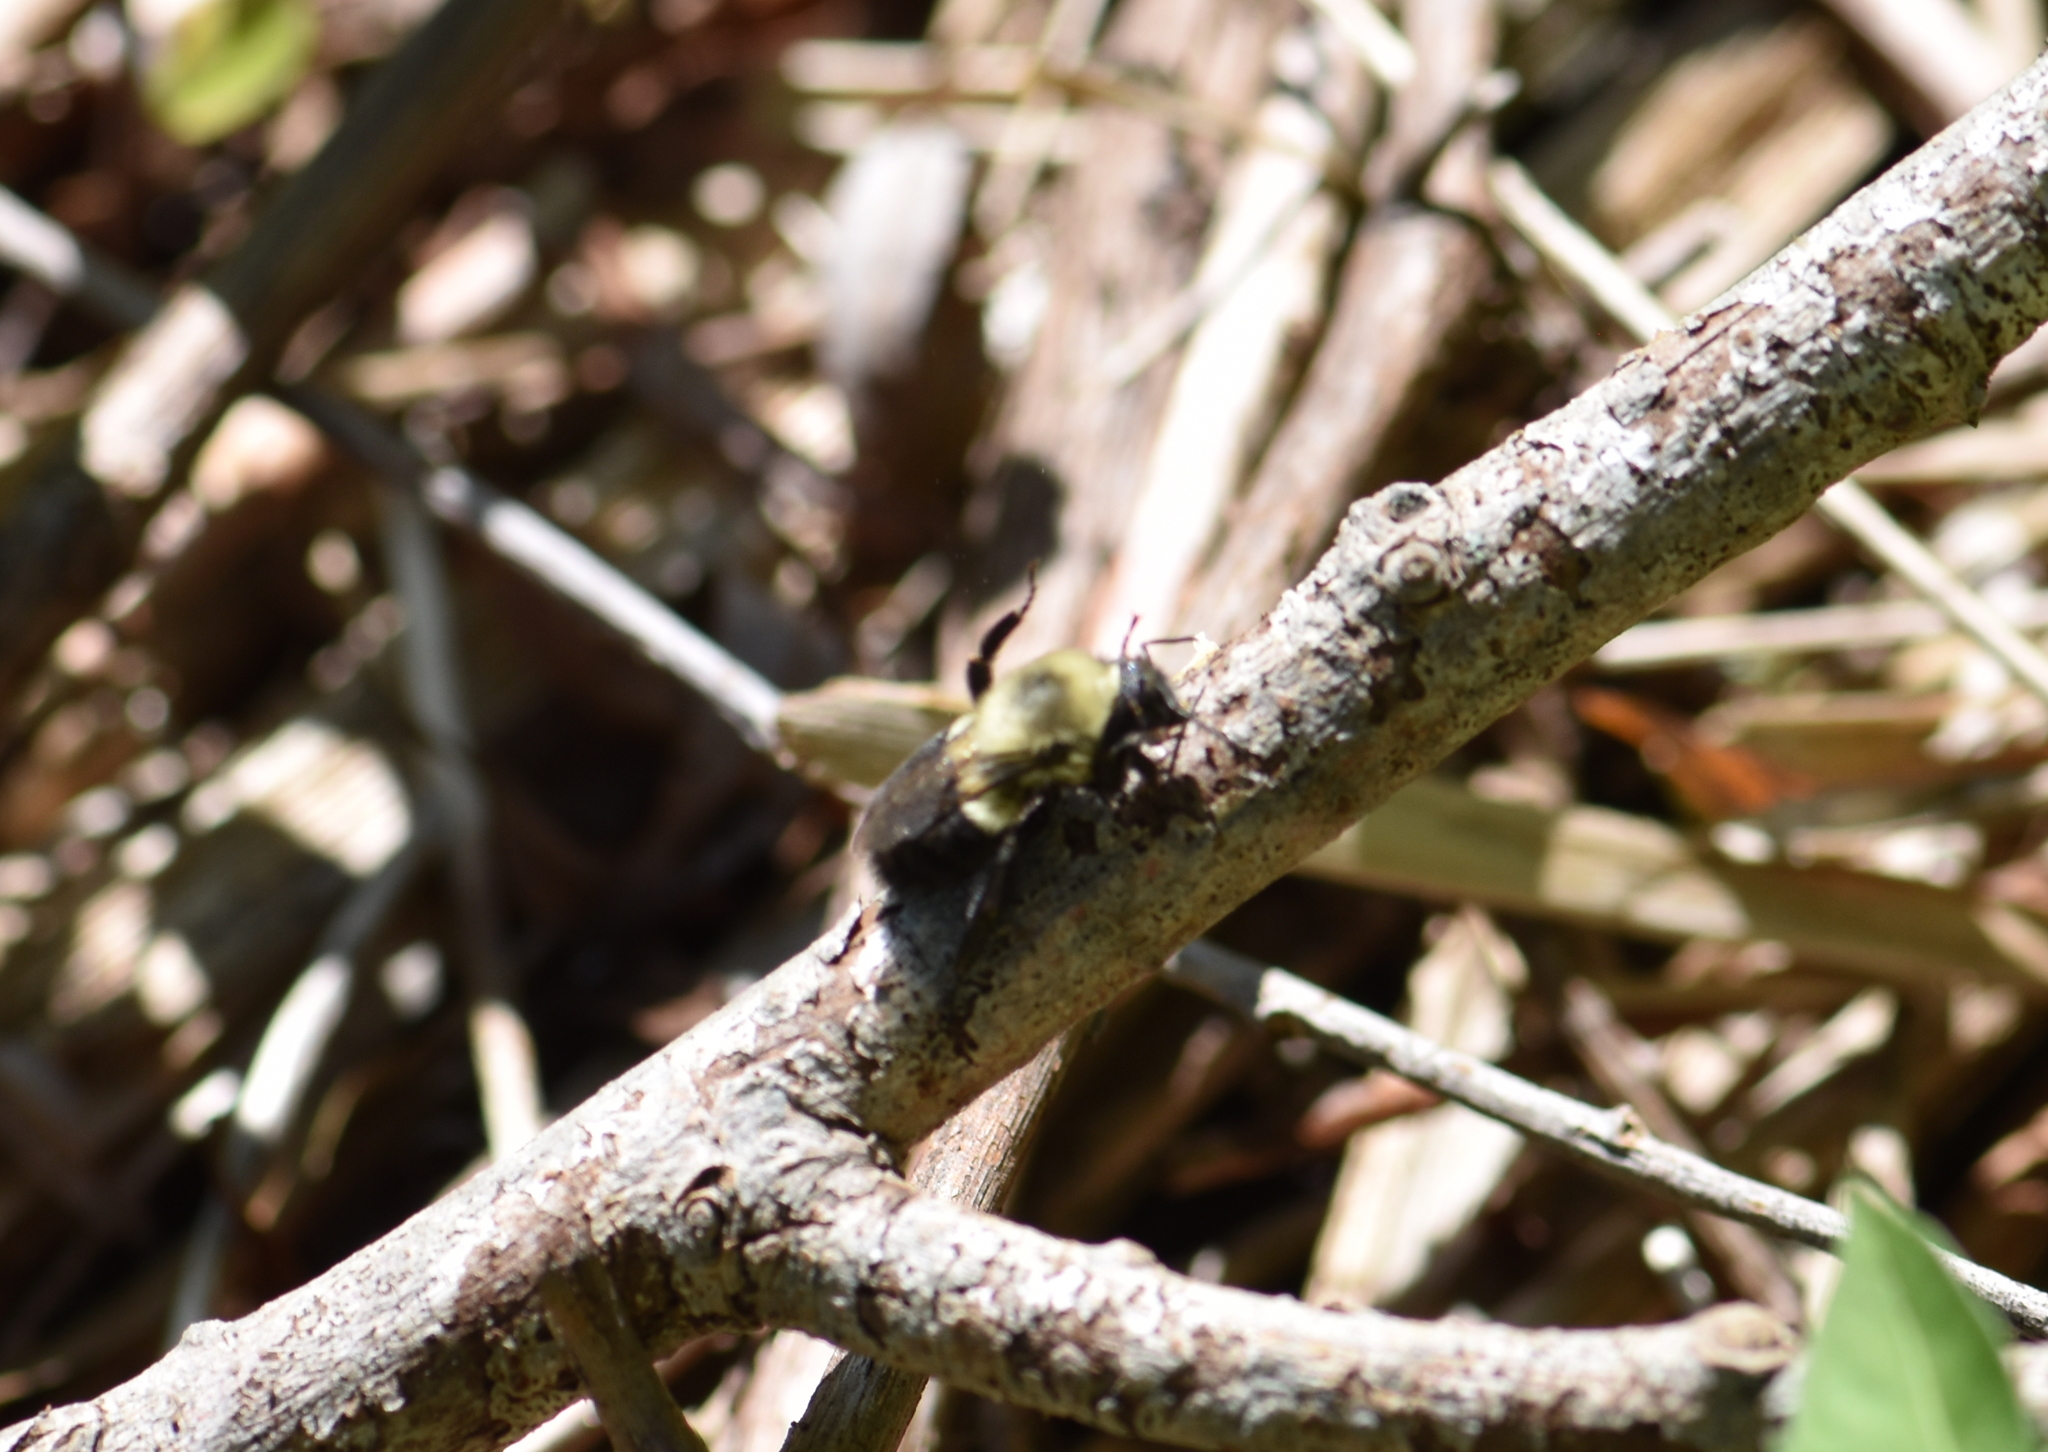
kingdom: Animalia
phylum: Arthropoda
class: Insecta
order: Hymenoptera
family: Apidae
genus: Bombus
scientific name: Bombus impatiens
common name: Common eastern bumble bee
